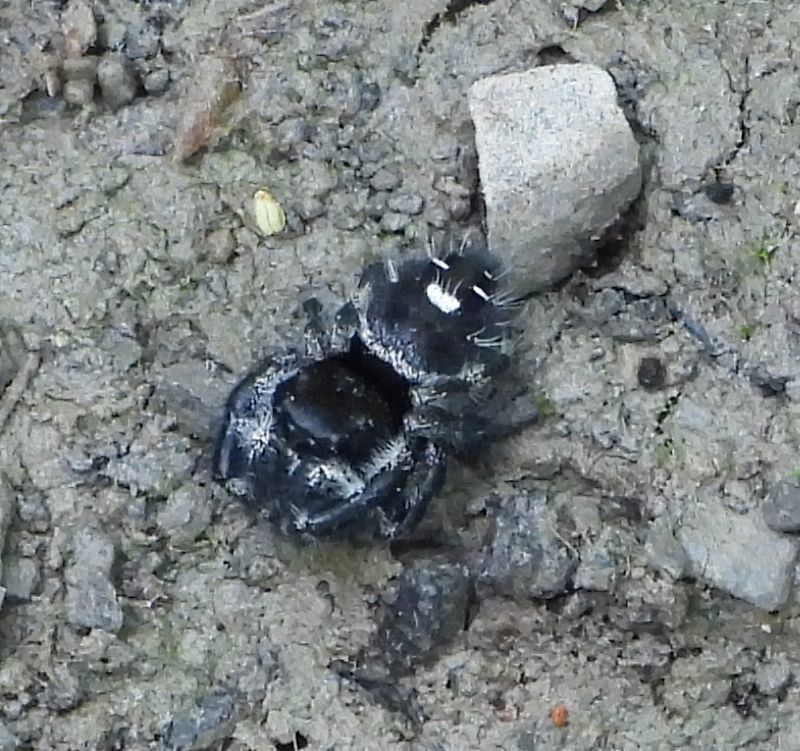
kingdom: Animalia
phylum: Arthropoda
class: Arachnida
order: Araneae
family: Salticidae
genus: Phidippus
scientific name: Phidippus audax
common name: Bold jumper
